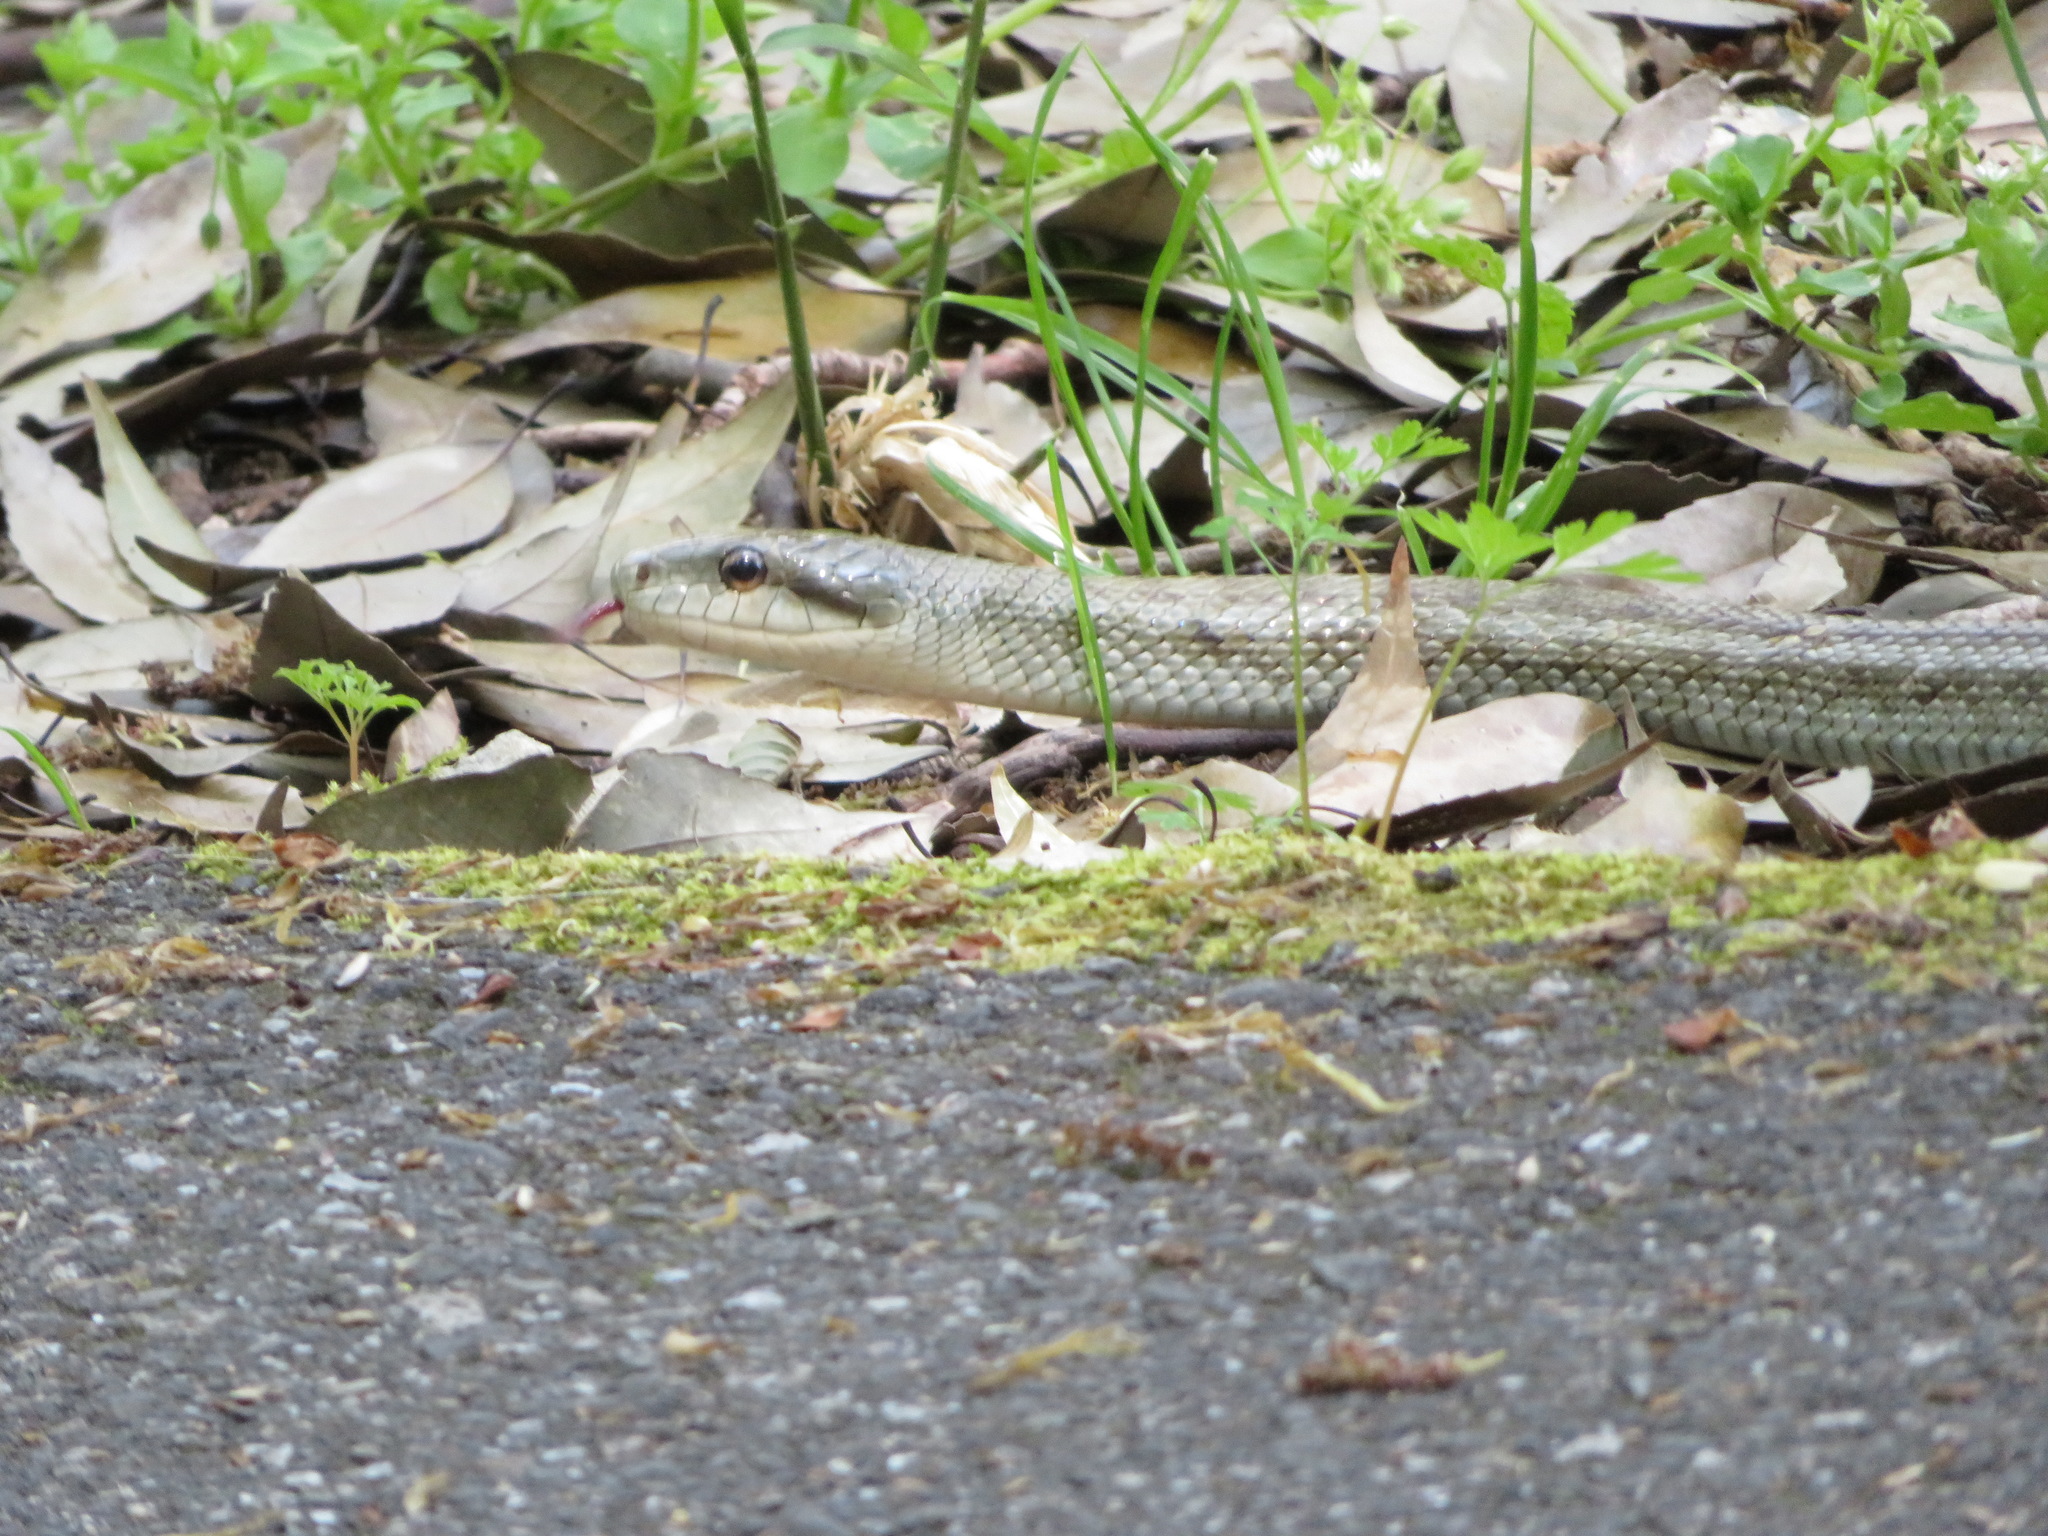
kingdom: Animalia
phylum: Chordata
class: Squamata
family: Colubridae
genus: Elaphe
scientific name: Elaphe climacophora
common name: Japanese ratsnake
